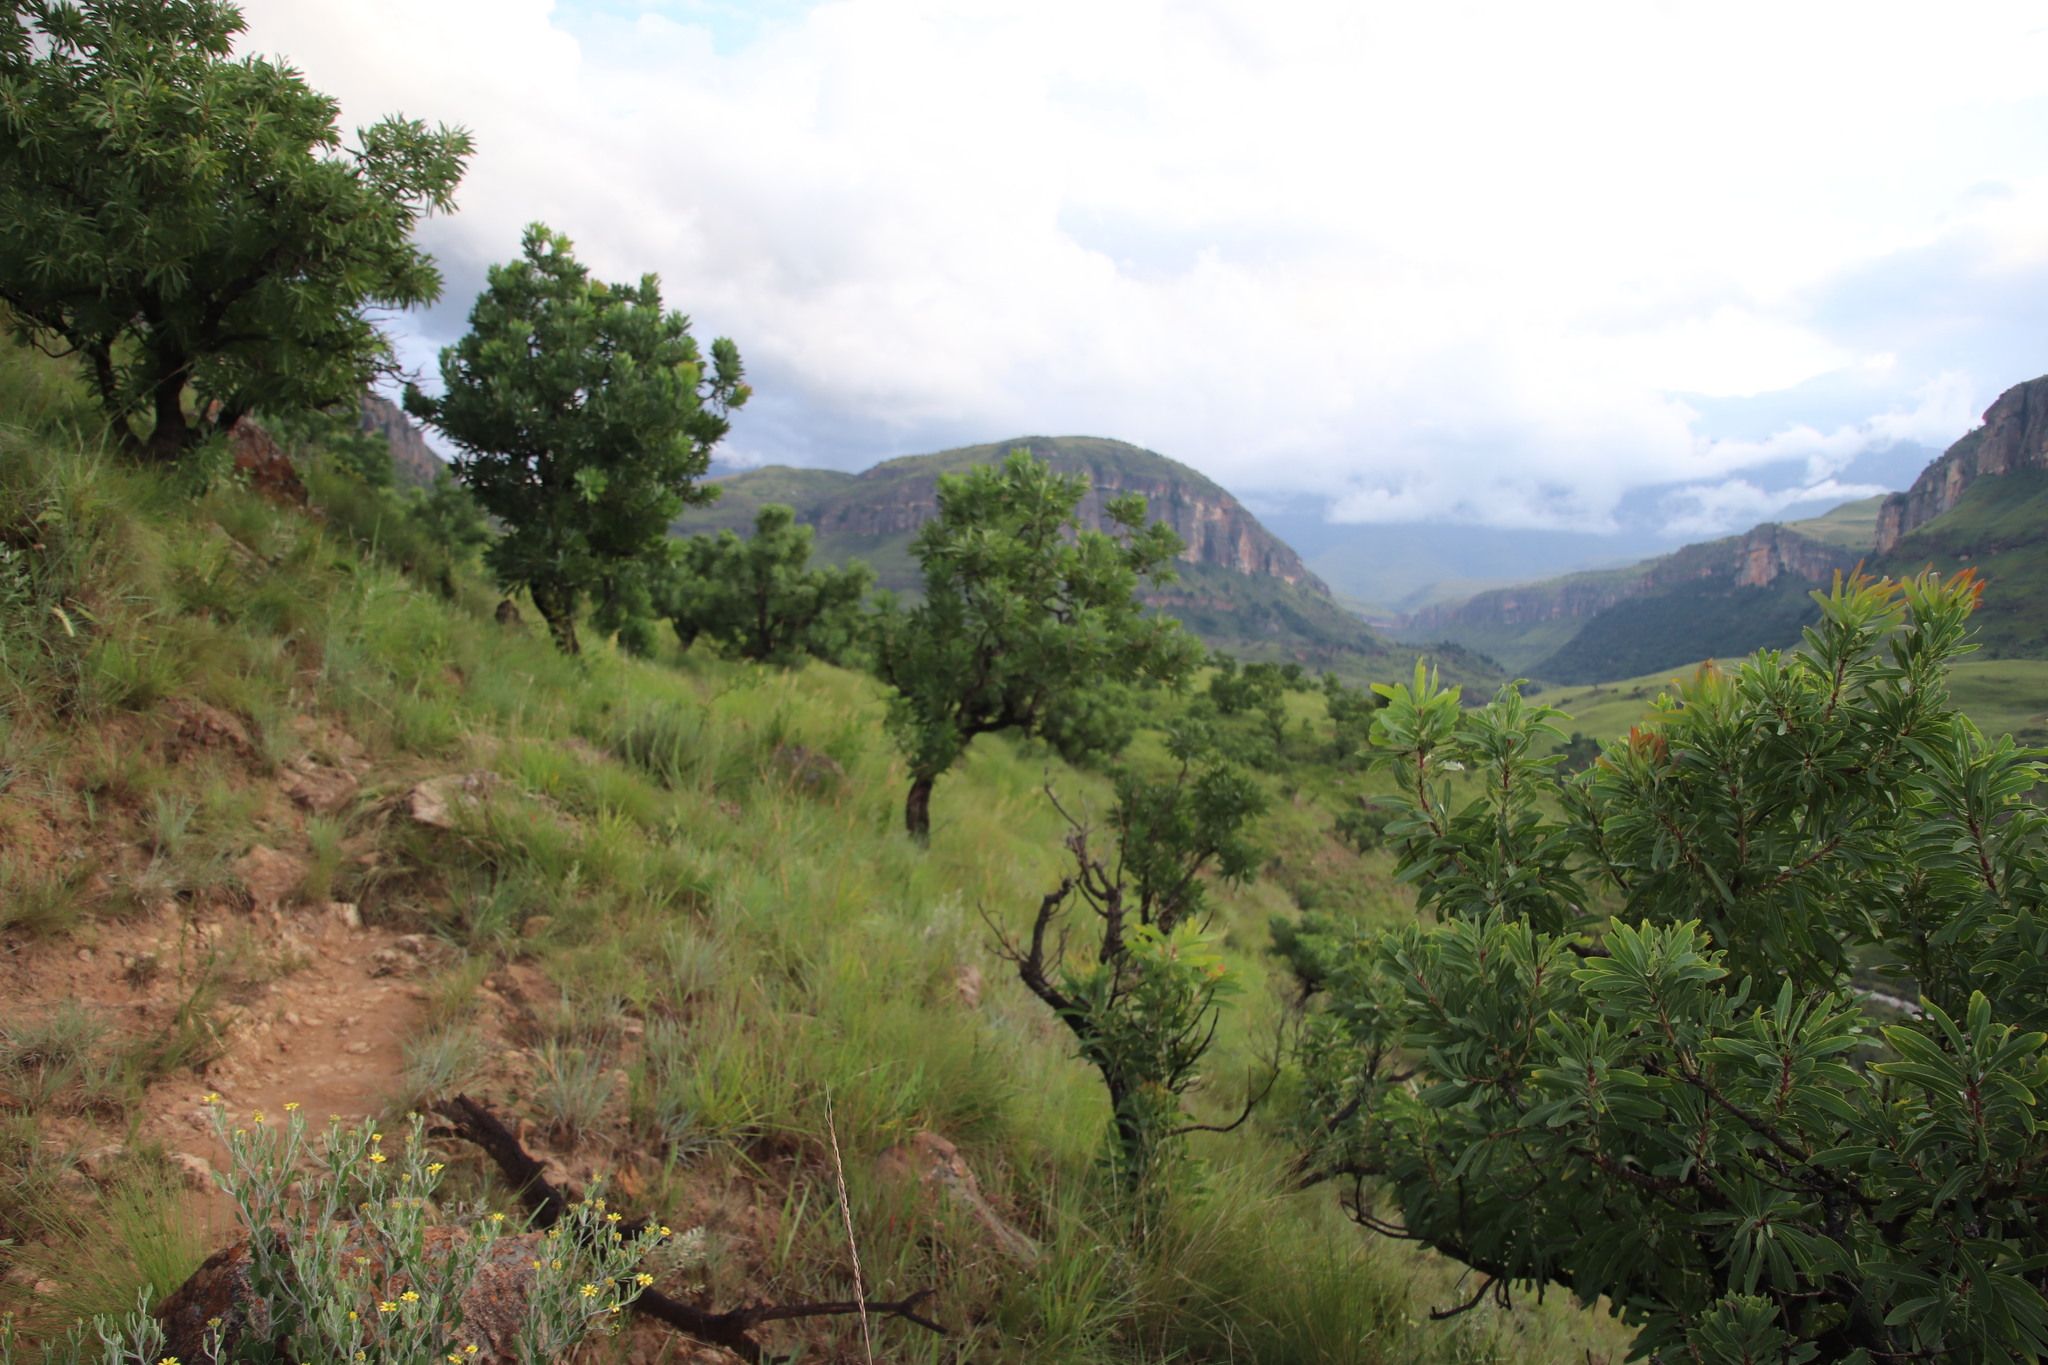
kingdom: Plantae
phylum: Tracheophyta
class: Magnoliopsida
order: Proteales
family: Proteaceae
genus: Protea
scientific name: Protea caffra
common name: Common sugarbush
